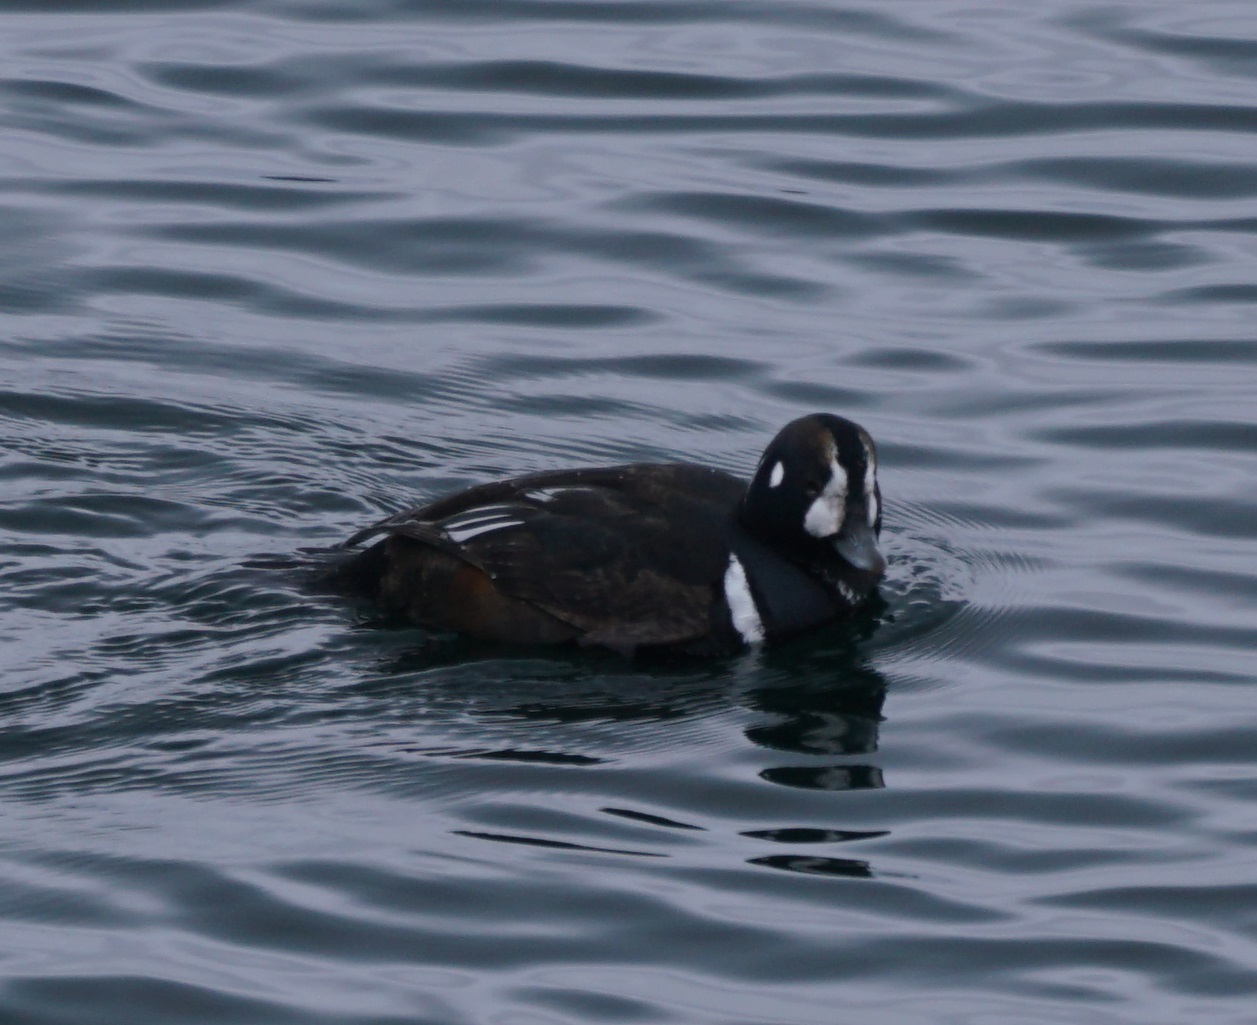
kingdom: Animalia
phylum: Chordata
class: Aves
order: Anseriformes
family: Anatidae
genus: Histrionicus
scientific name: Histrionicus histrionicus
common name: Harlequin duck
